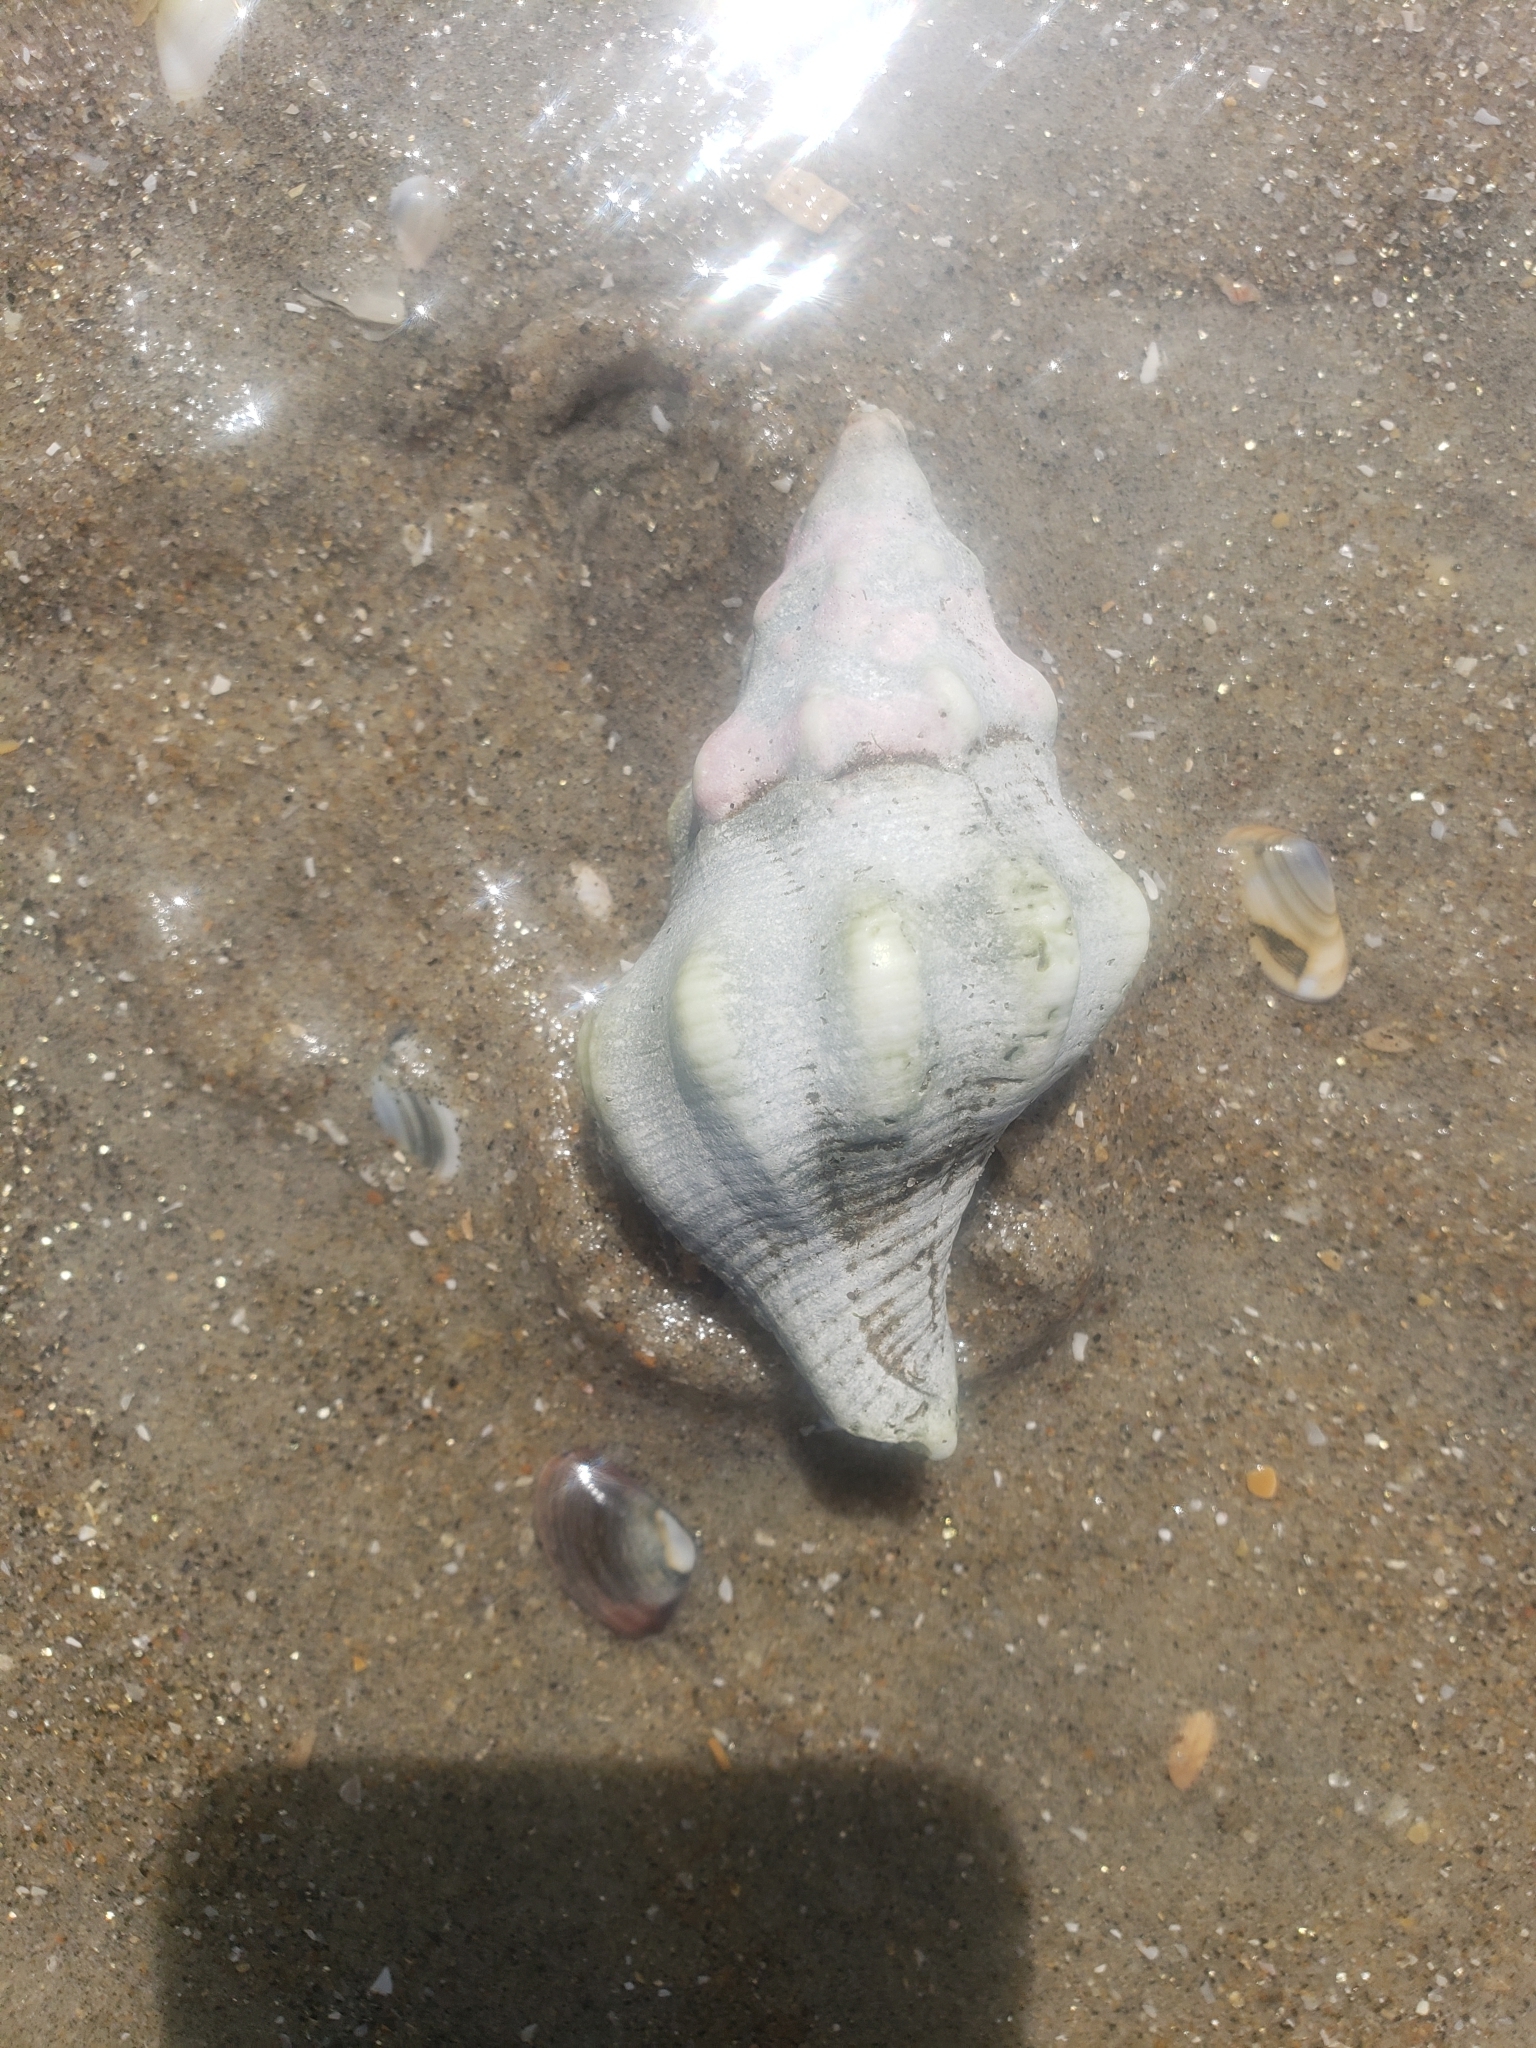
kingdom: Animalia
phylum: Mollusca
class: Gastropoda
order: Neogastropoda
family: Austrosiphonidae
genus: Kelletia
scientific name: Kelletia kelletii
